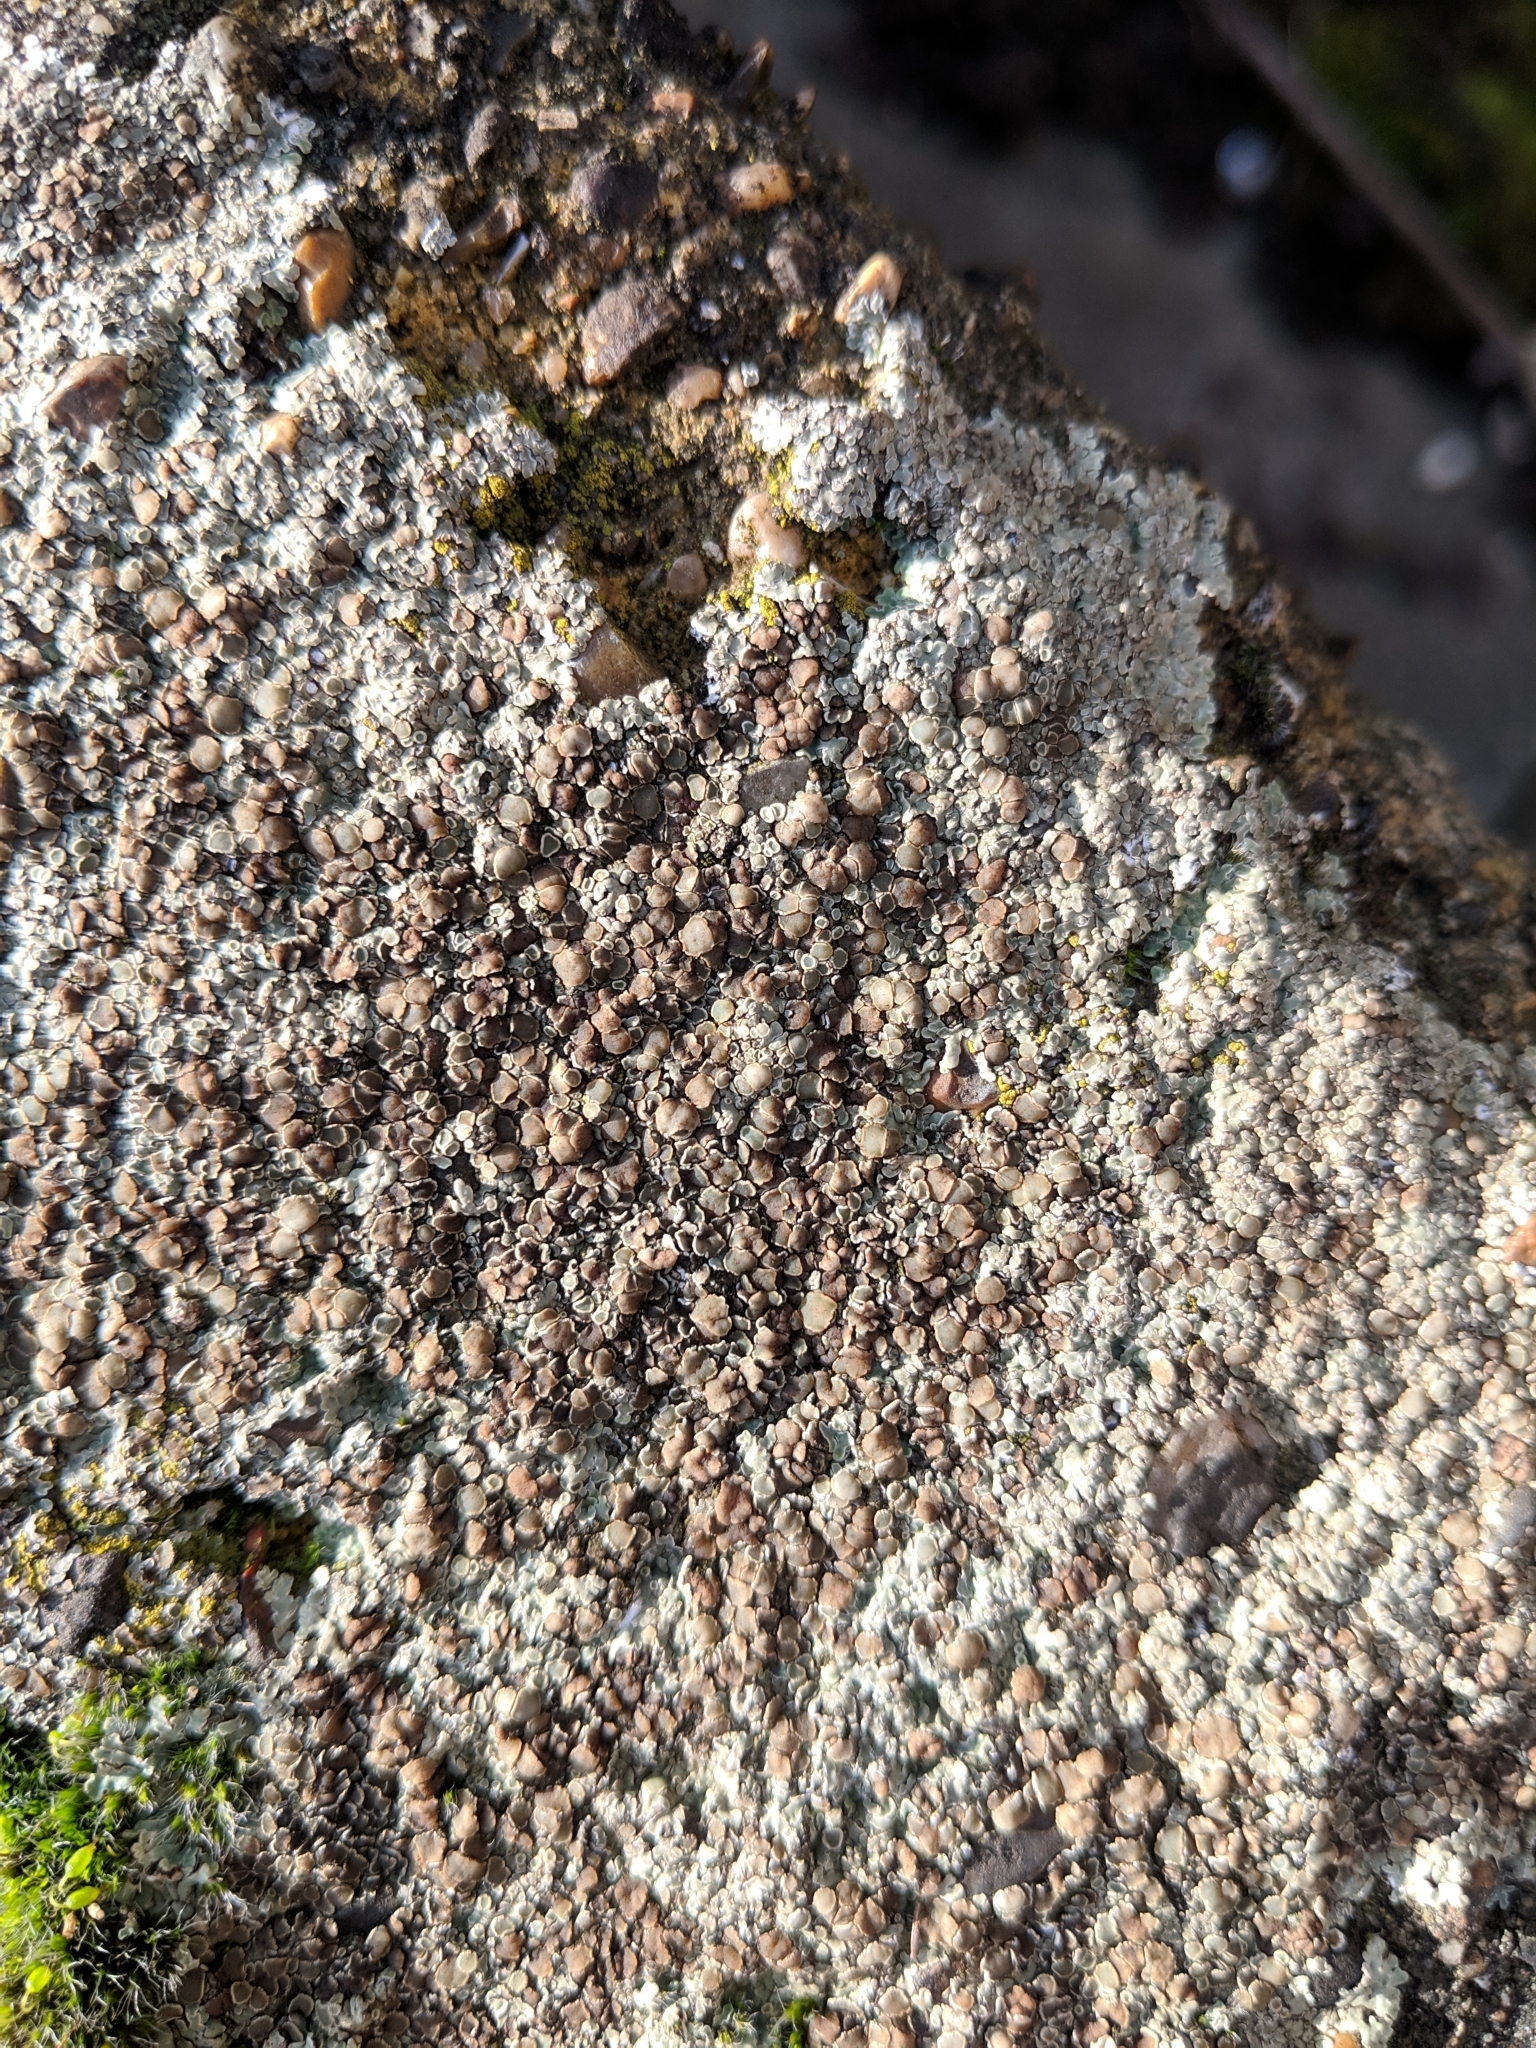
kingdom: Fungi
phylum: Ascomycota
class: Lecanoromycetes
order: Lecanorales
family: Lecanoraceae
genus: Protoparmeliopsis
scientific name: Protoparmeliopsis muralis
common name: Stonewall rim lichen
